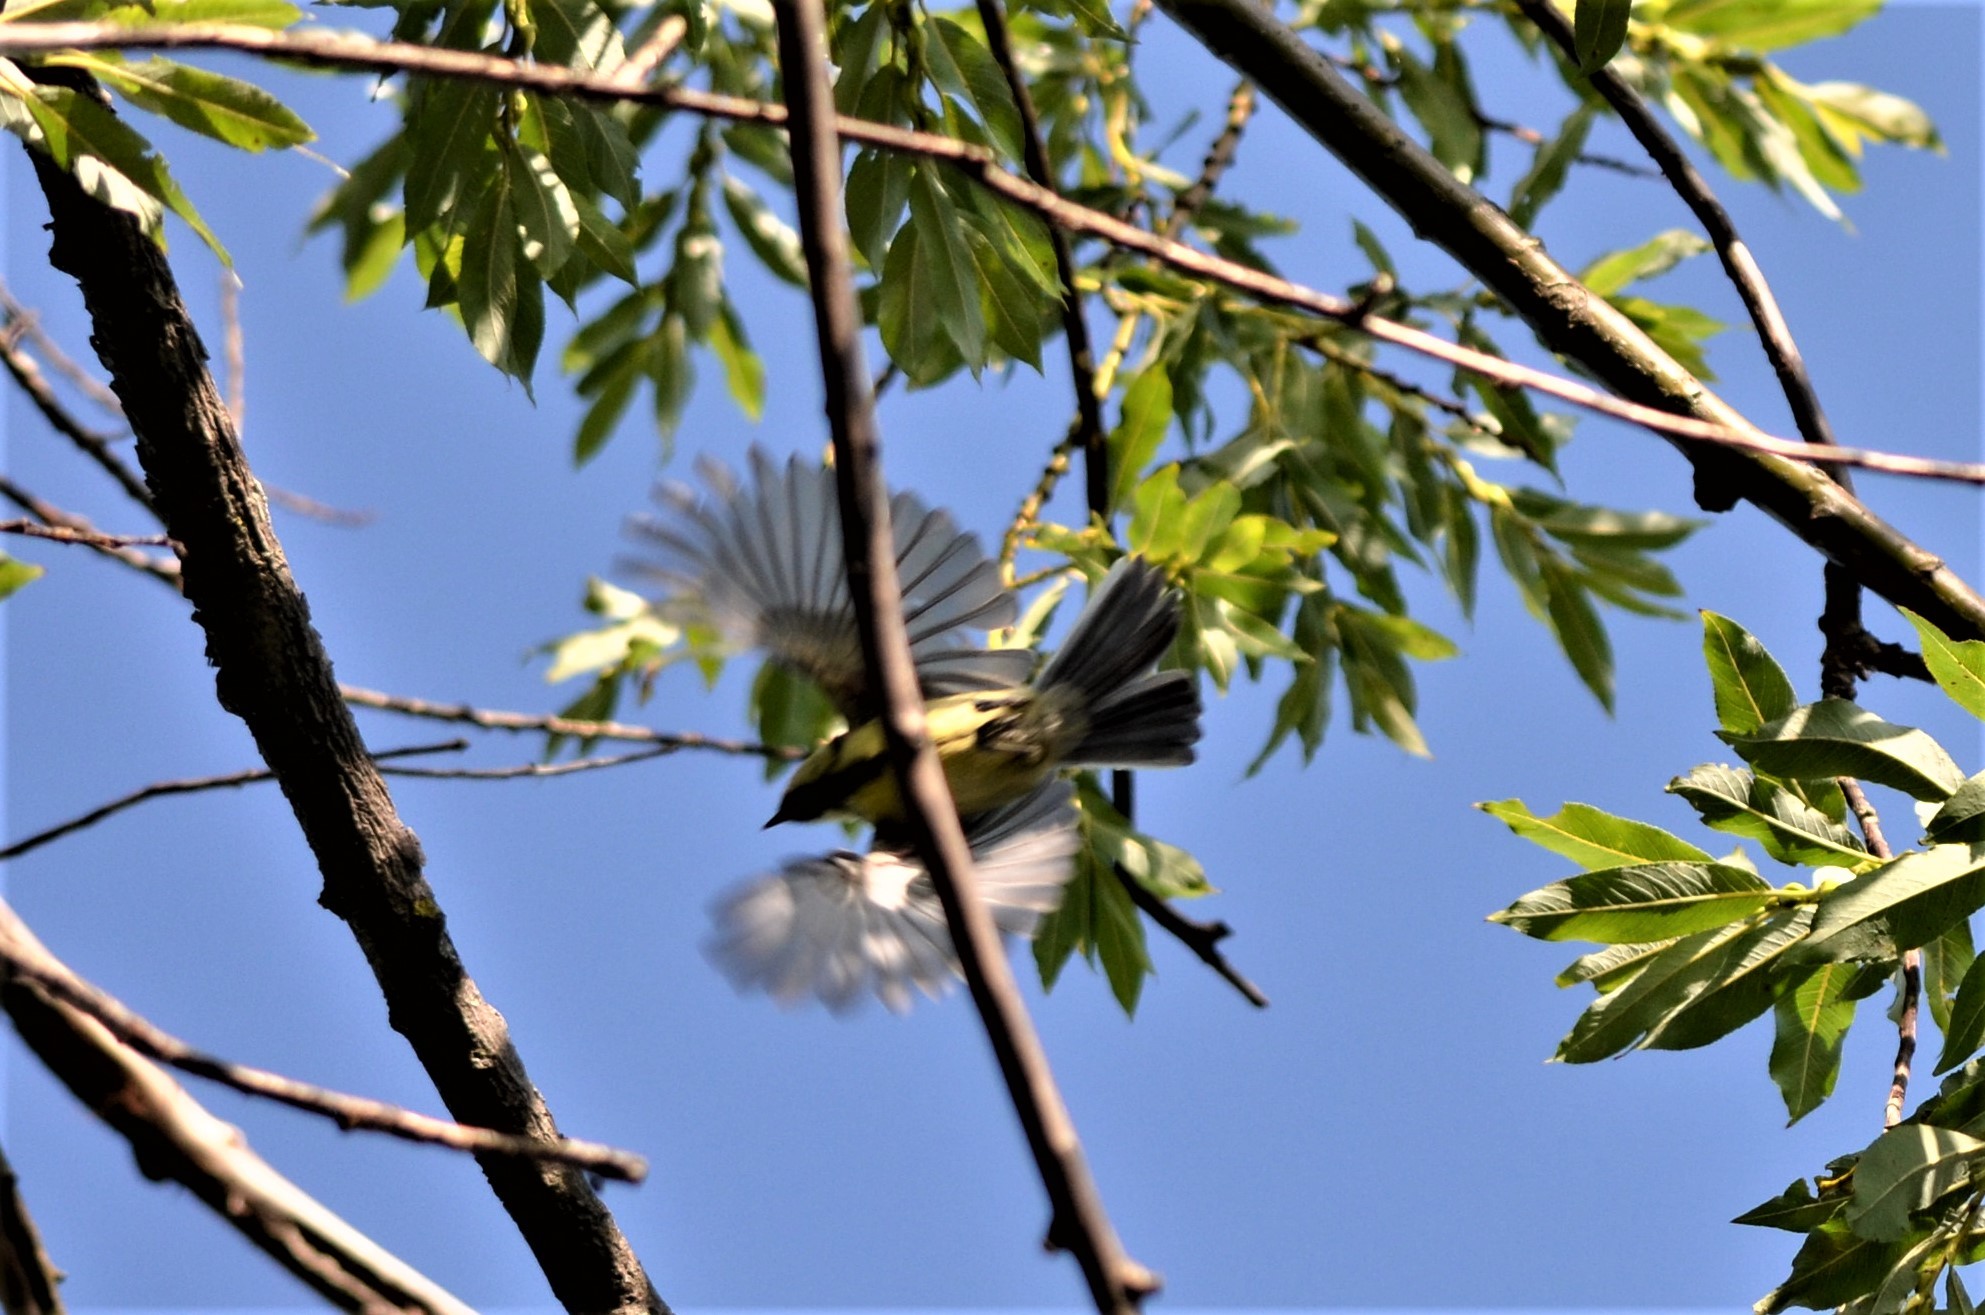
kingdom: Animalia
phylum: Chordata
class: Aves
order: Passeriformes
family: Paridae
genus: Parus
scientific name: Parus major
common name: Great tit
